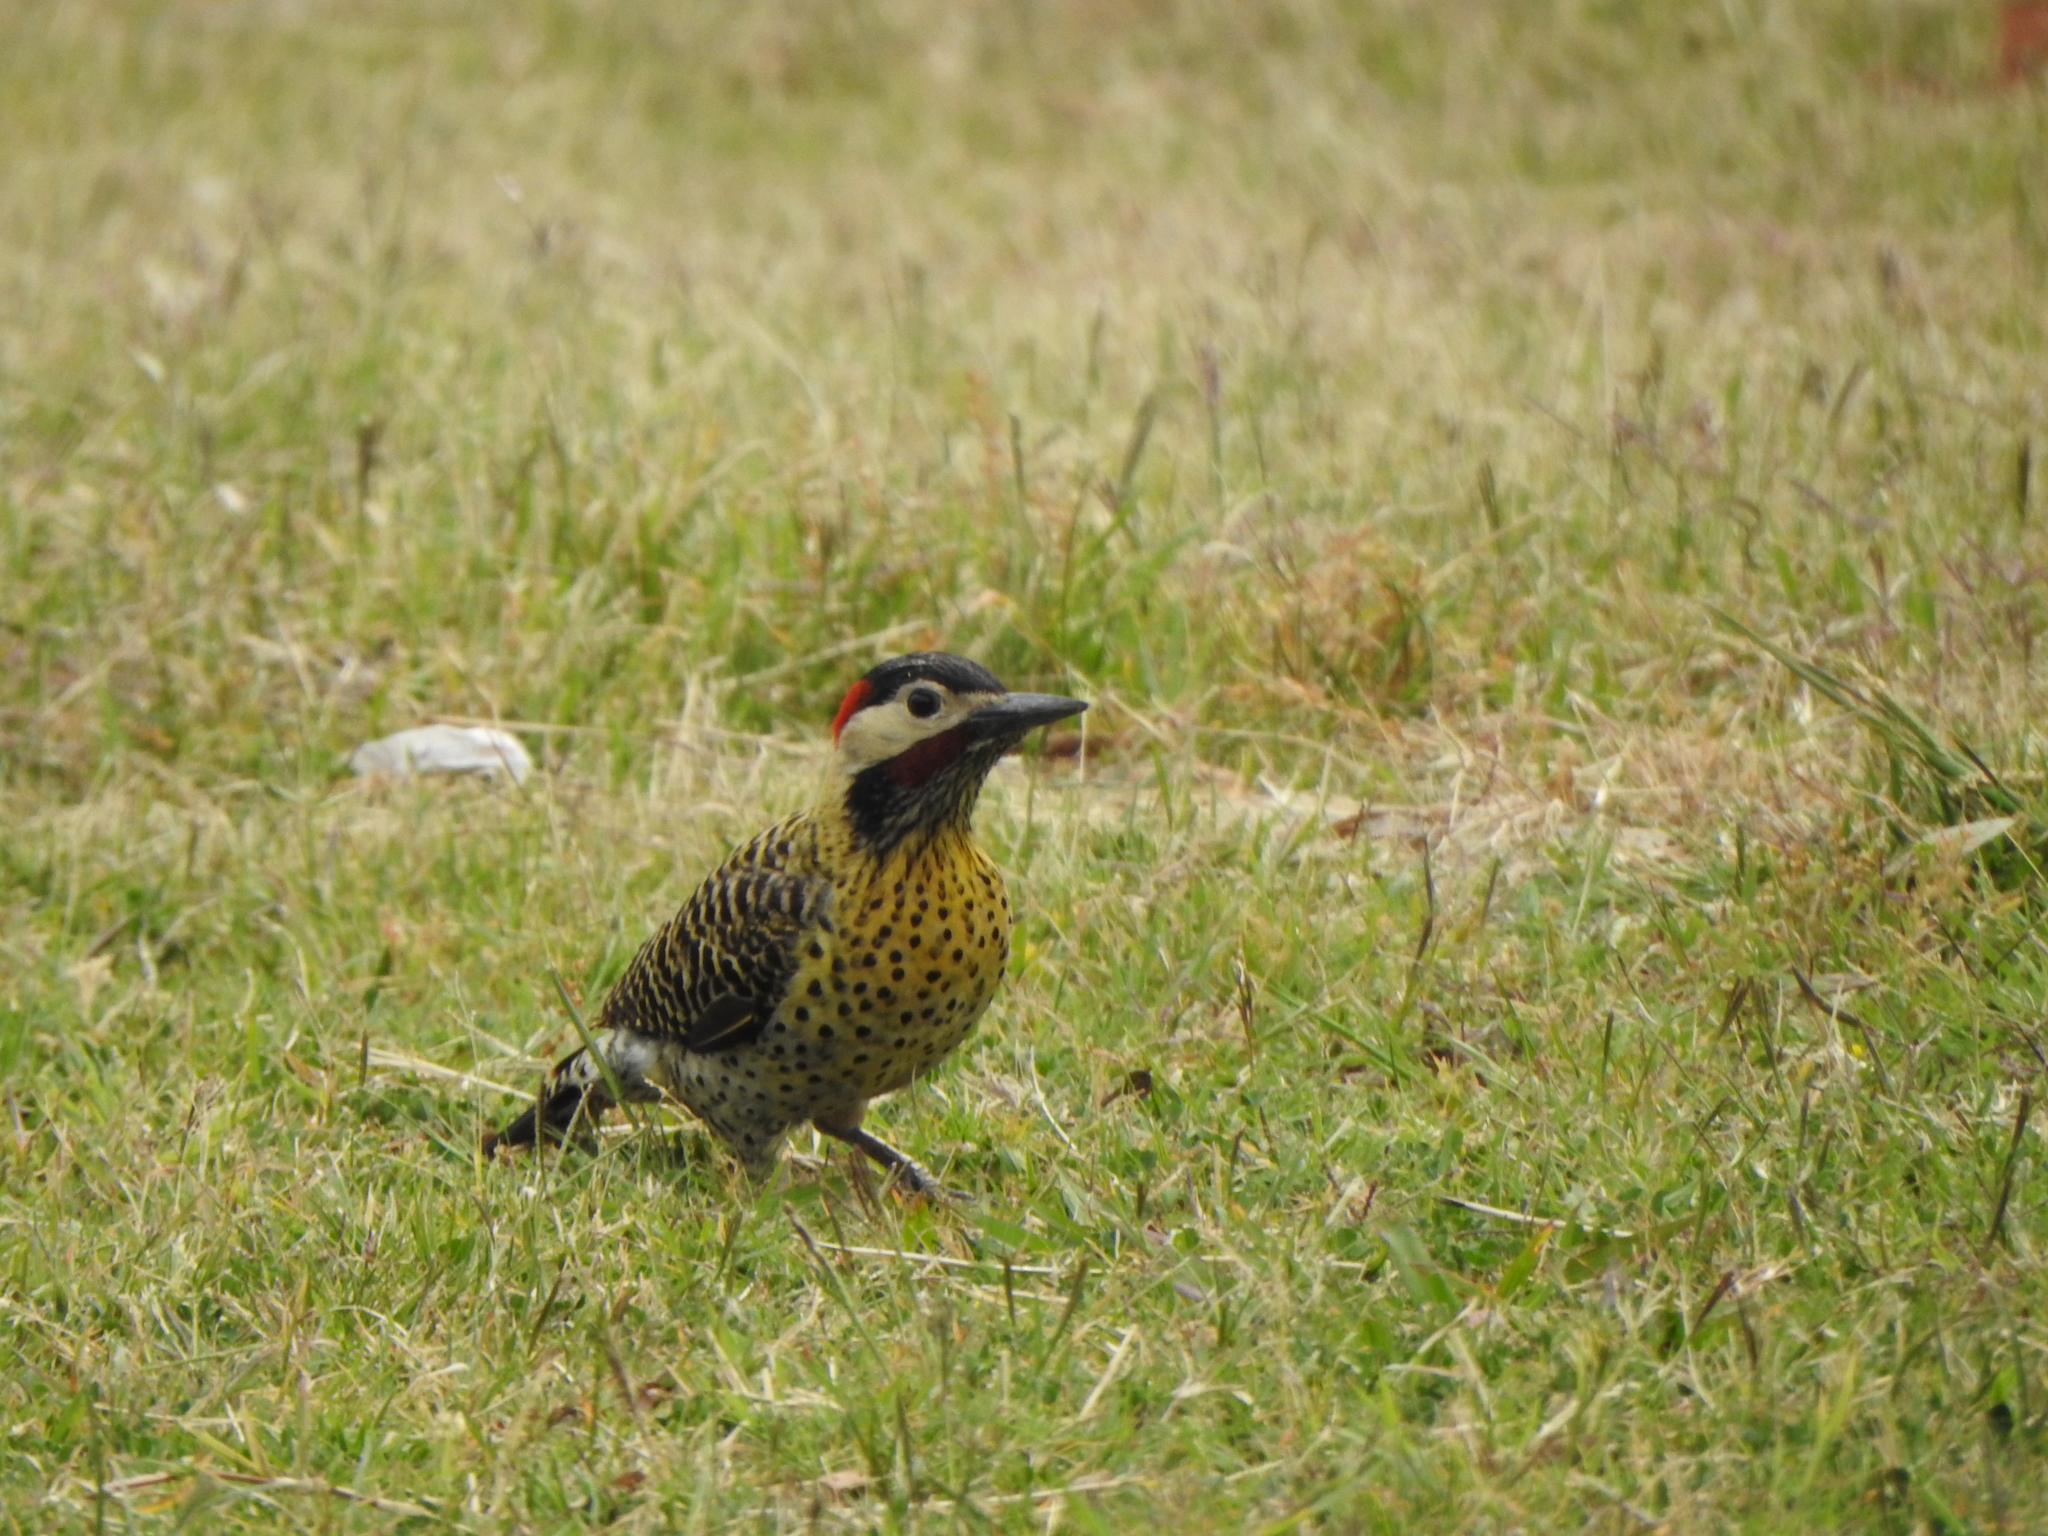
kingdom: Animalia
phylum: Chordata
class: Aves
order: Piciformes
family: Picidae
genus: Colaptes
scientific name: Colaptes melanochloros
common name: Green-barred woodpecker
